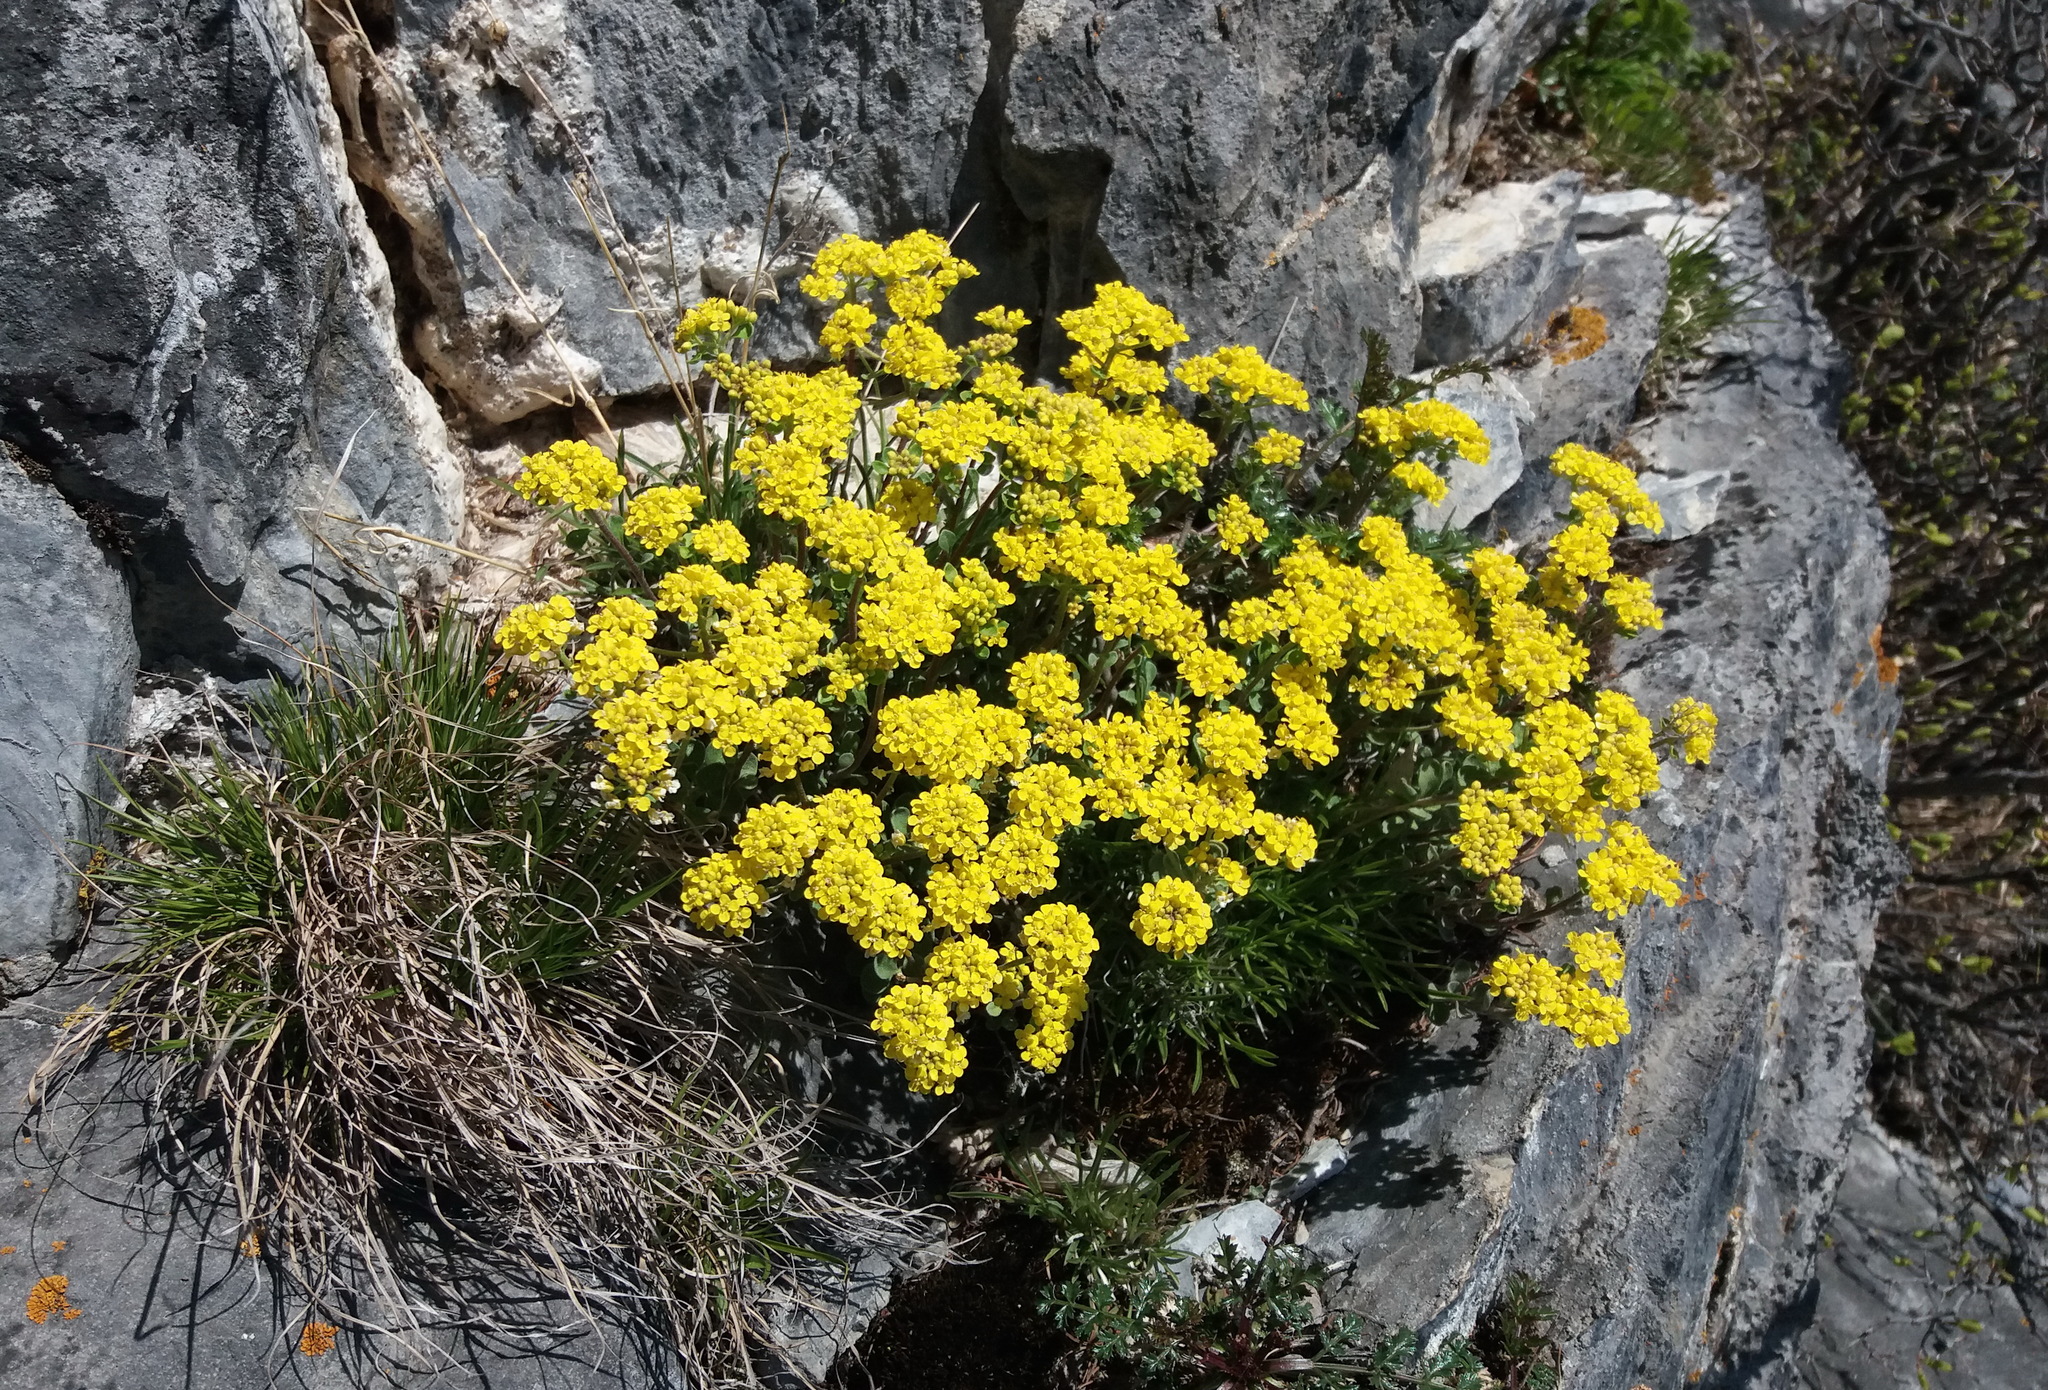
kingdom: Plantae
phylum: Tracheophyta
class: Magnoliopsida
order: Brassicales
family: Brassicaceae
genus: Odontarrhena
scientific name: Odontarrhena obovata
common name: American alyssum
